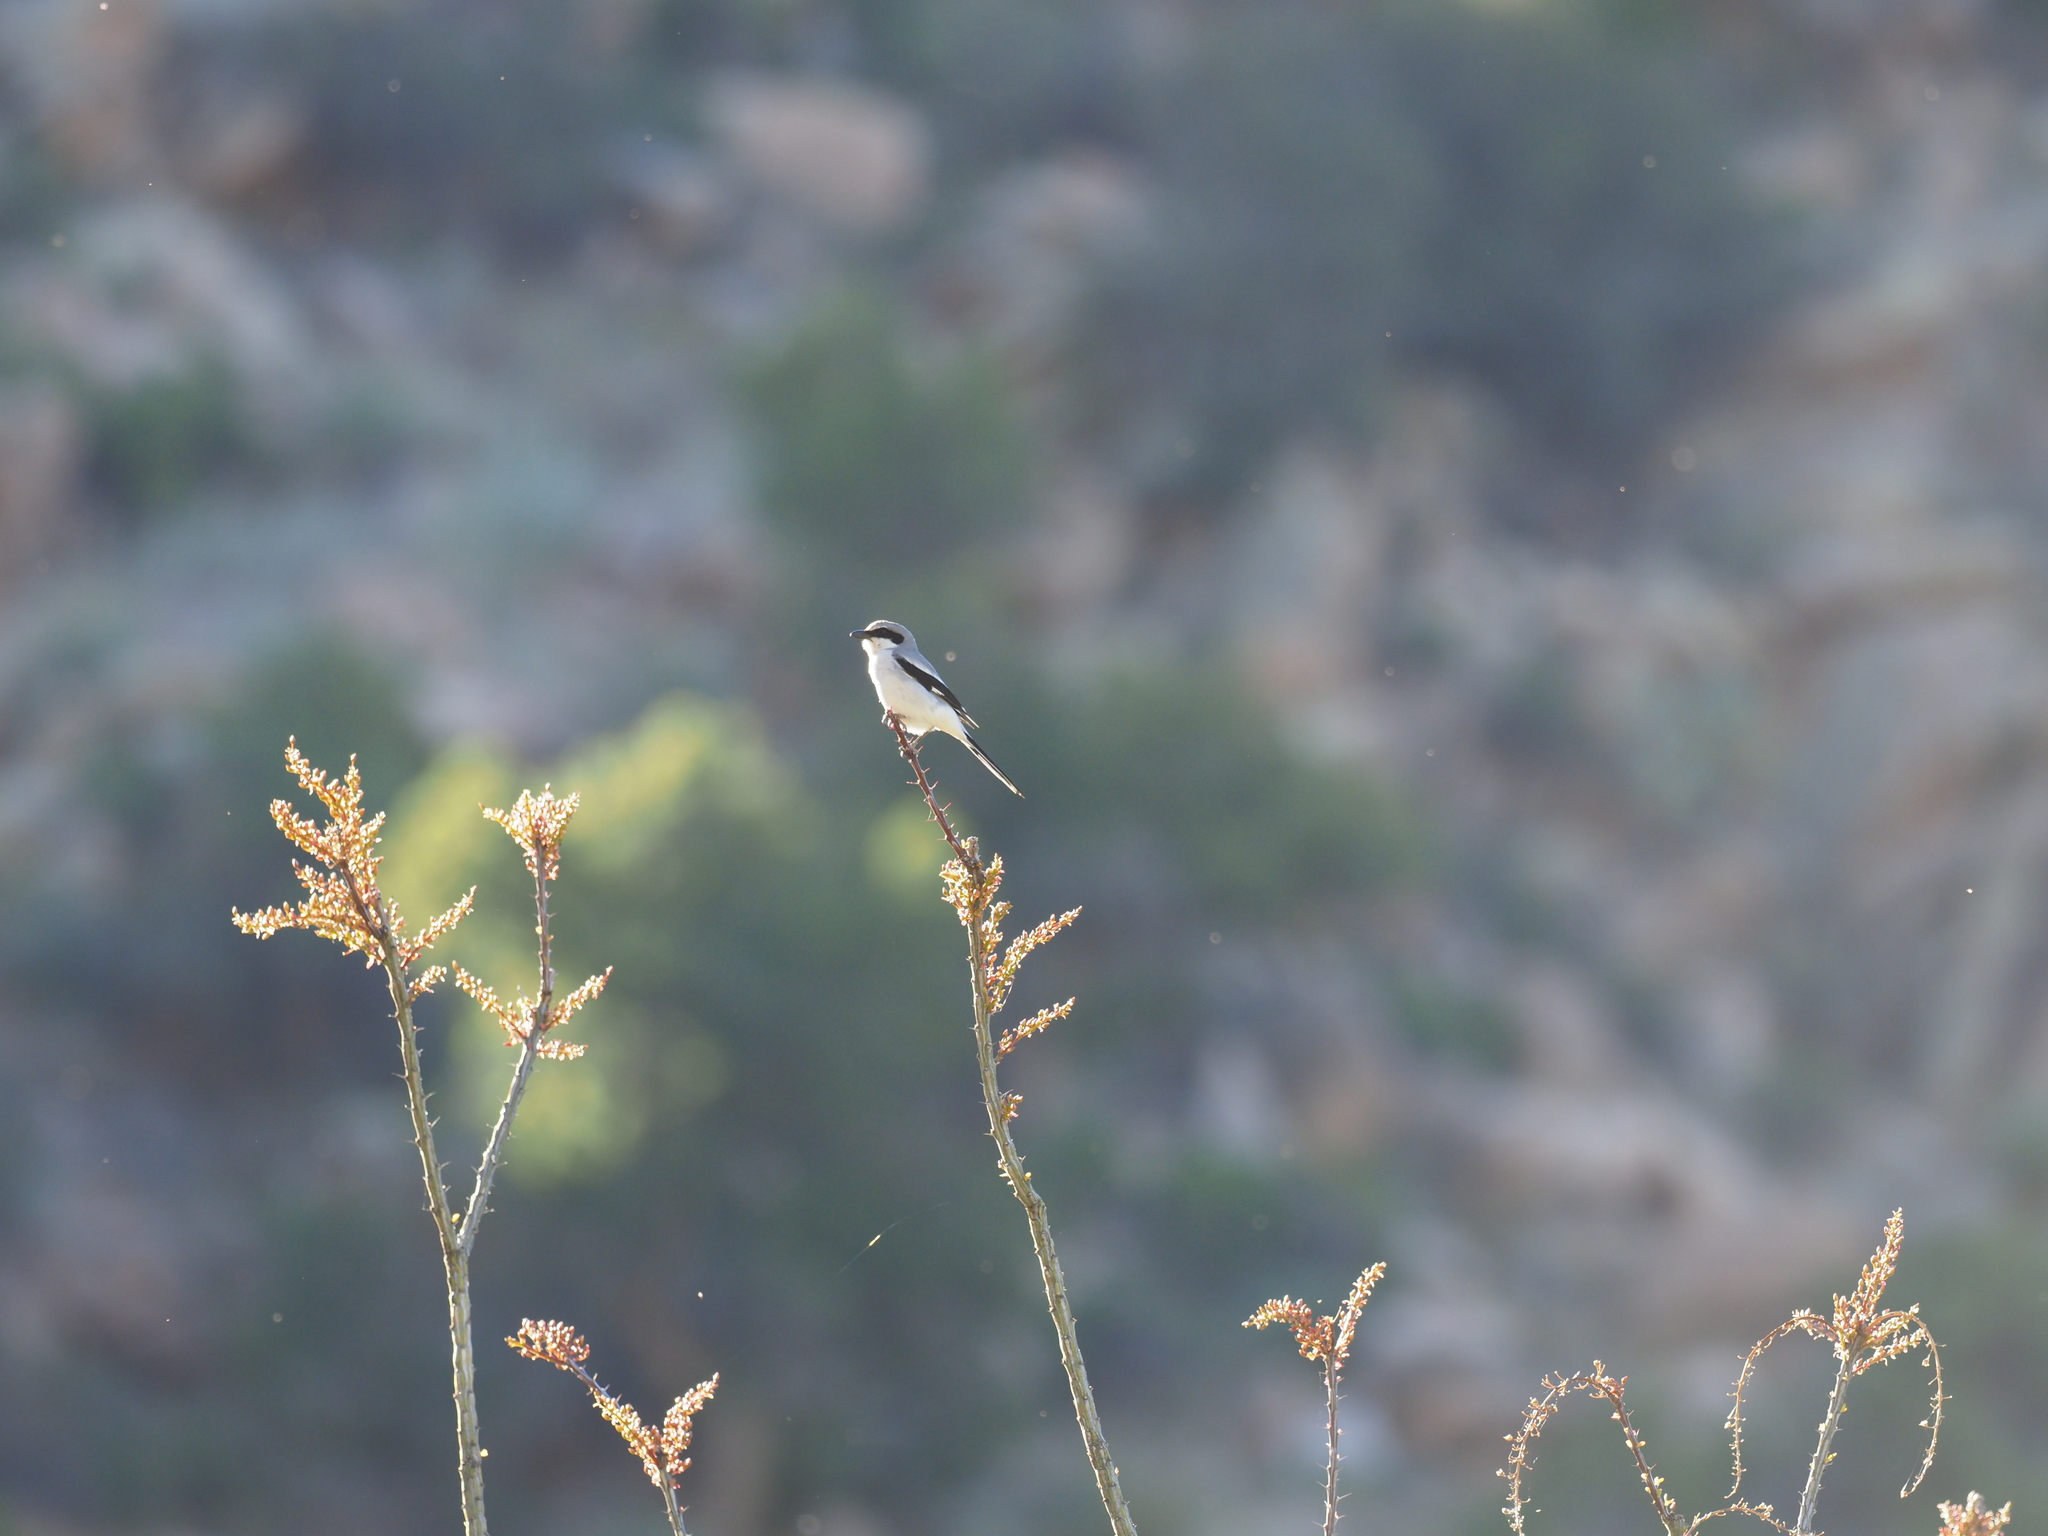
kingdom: Animalia
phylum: Chordata
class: Aves
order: Passeriformes
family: Laniidae
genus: Lanius
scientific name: Lanius ludovicianus
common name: Loggerhead shrike
